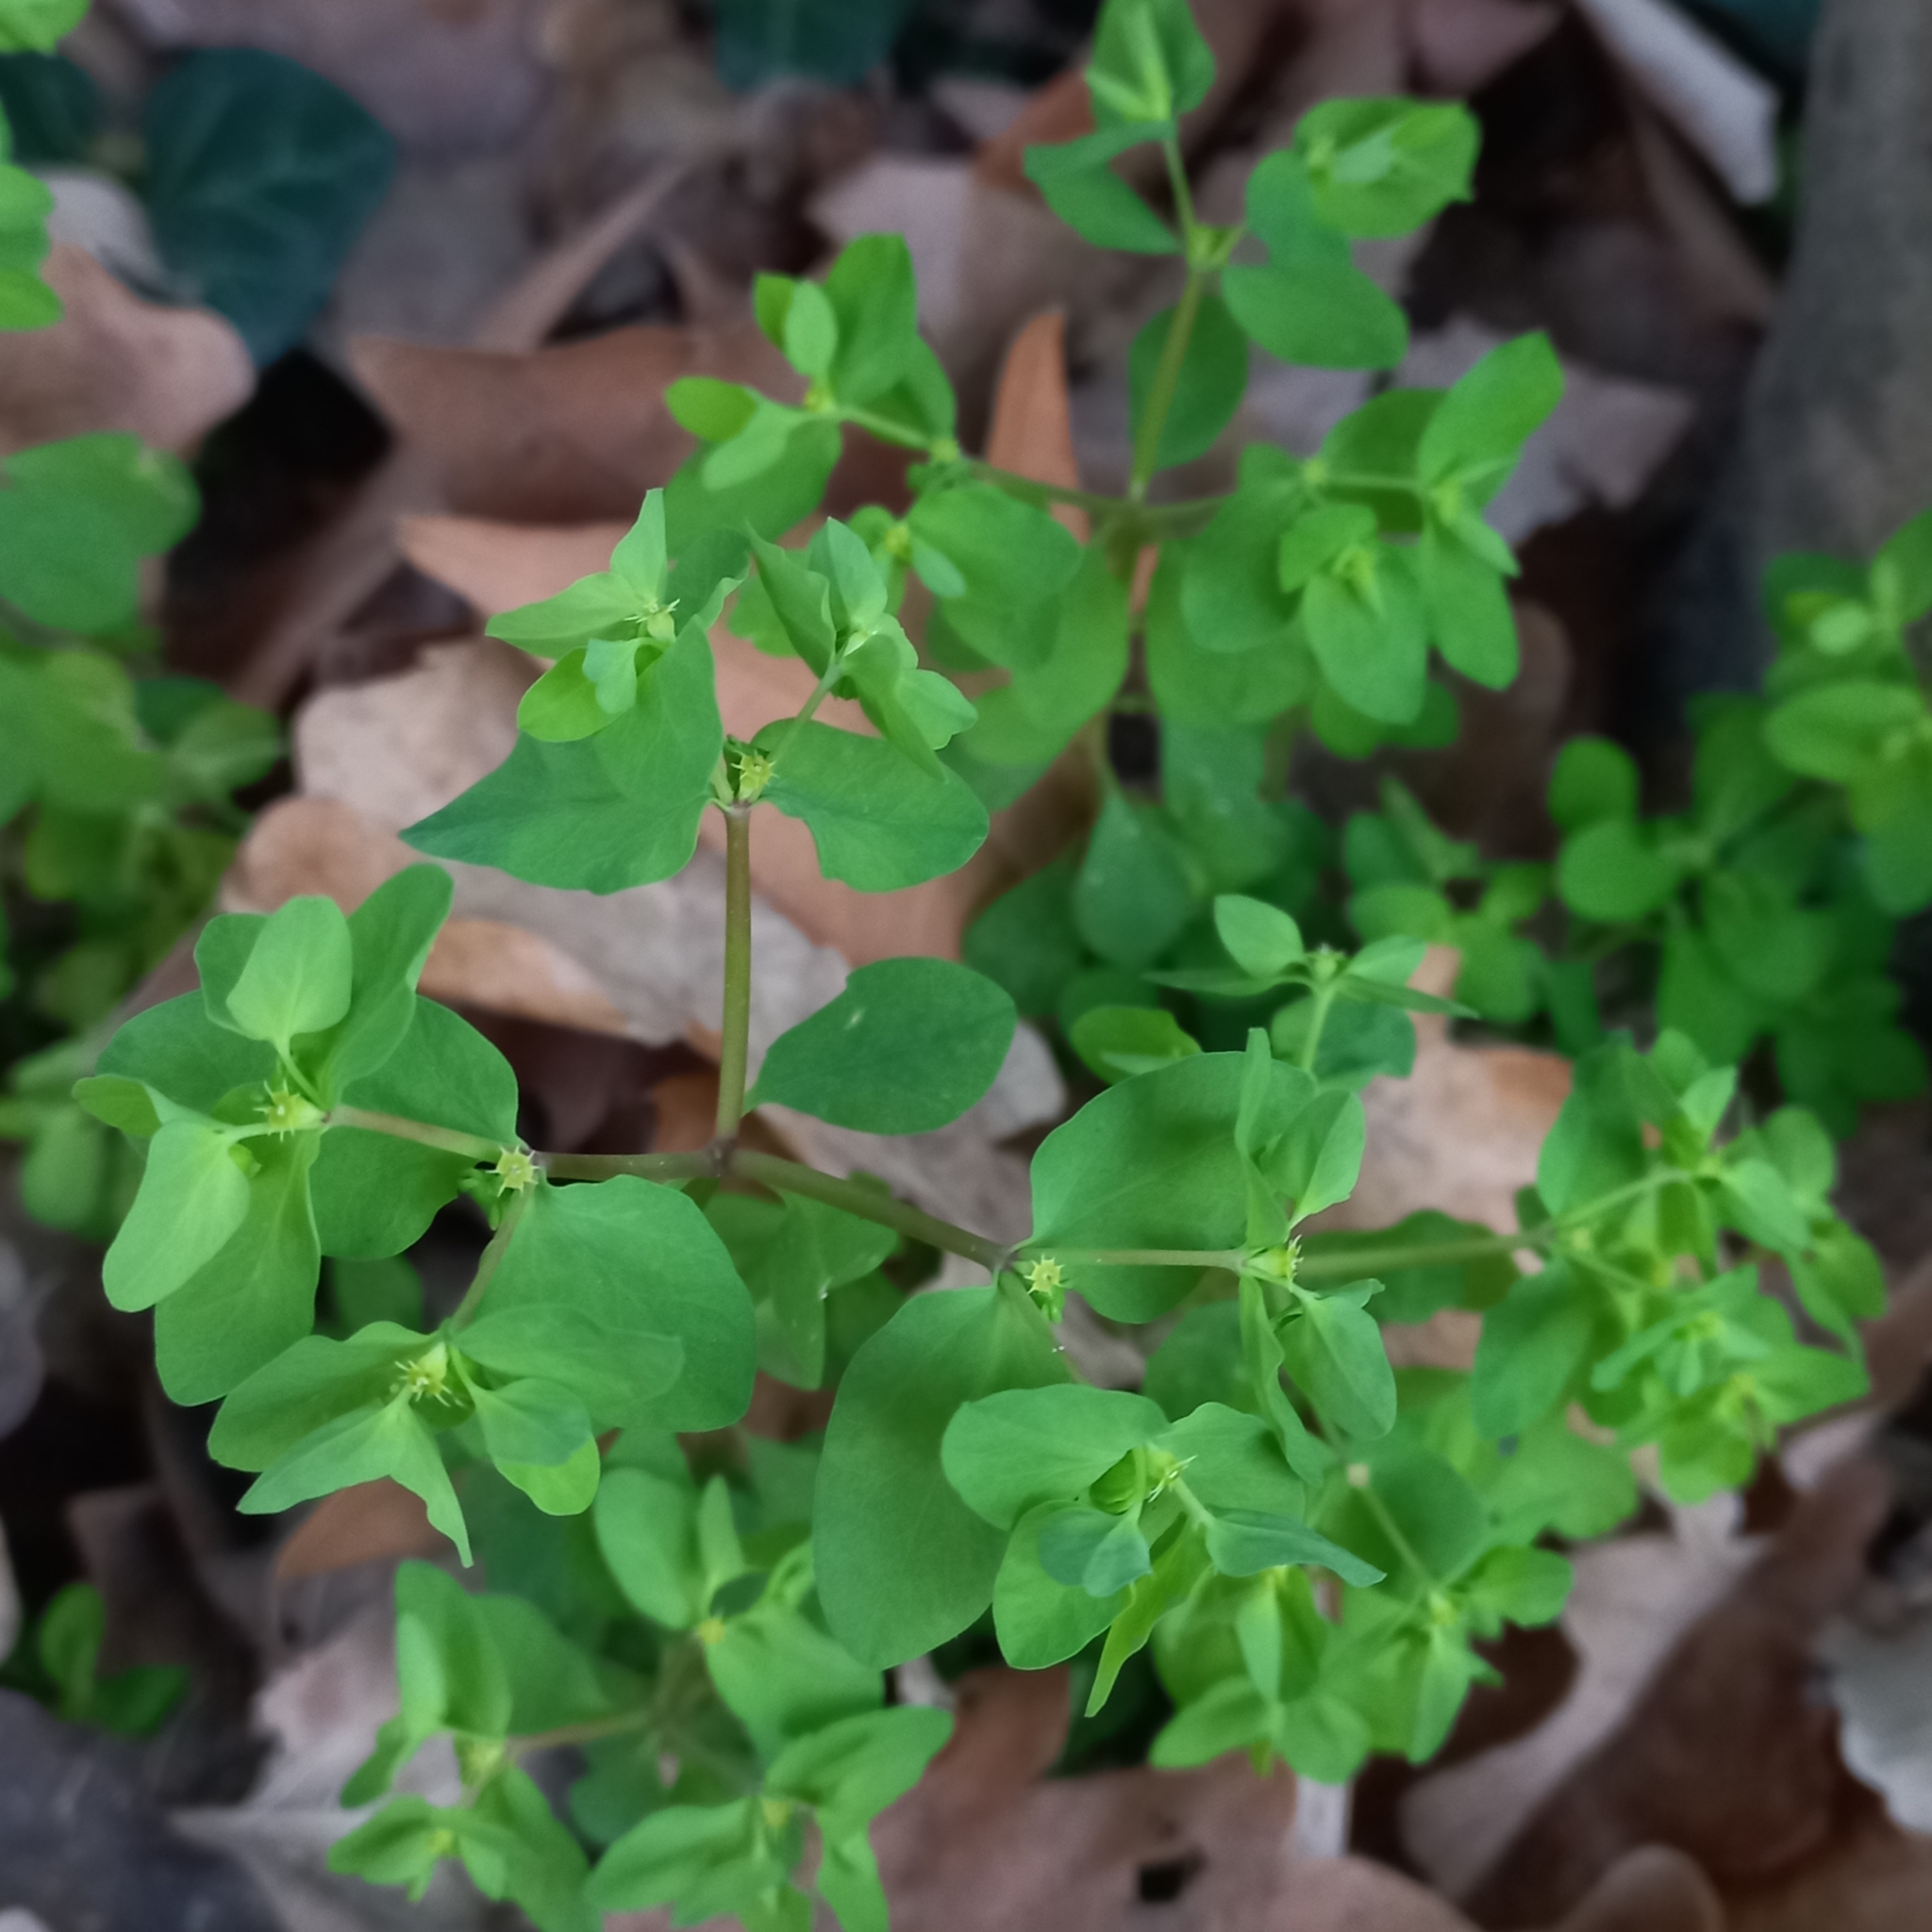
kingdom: Plantae
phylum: Tracheophyta
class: Magnoliopsida
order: Malpighiales
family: Euphorbiaceae
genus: Euphorbia
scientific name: Euphorbia peplus
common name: Petty spurge
